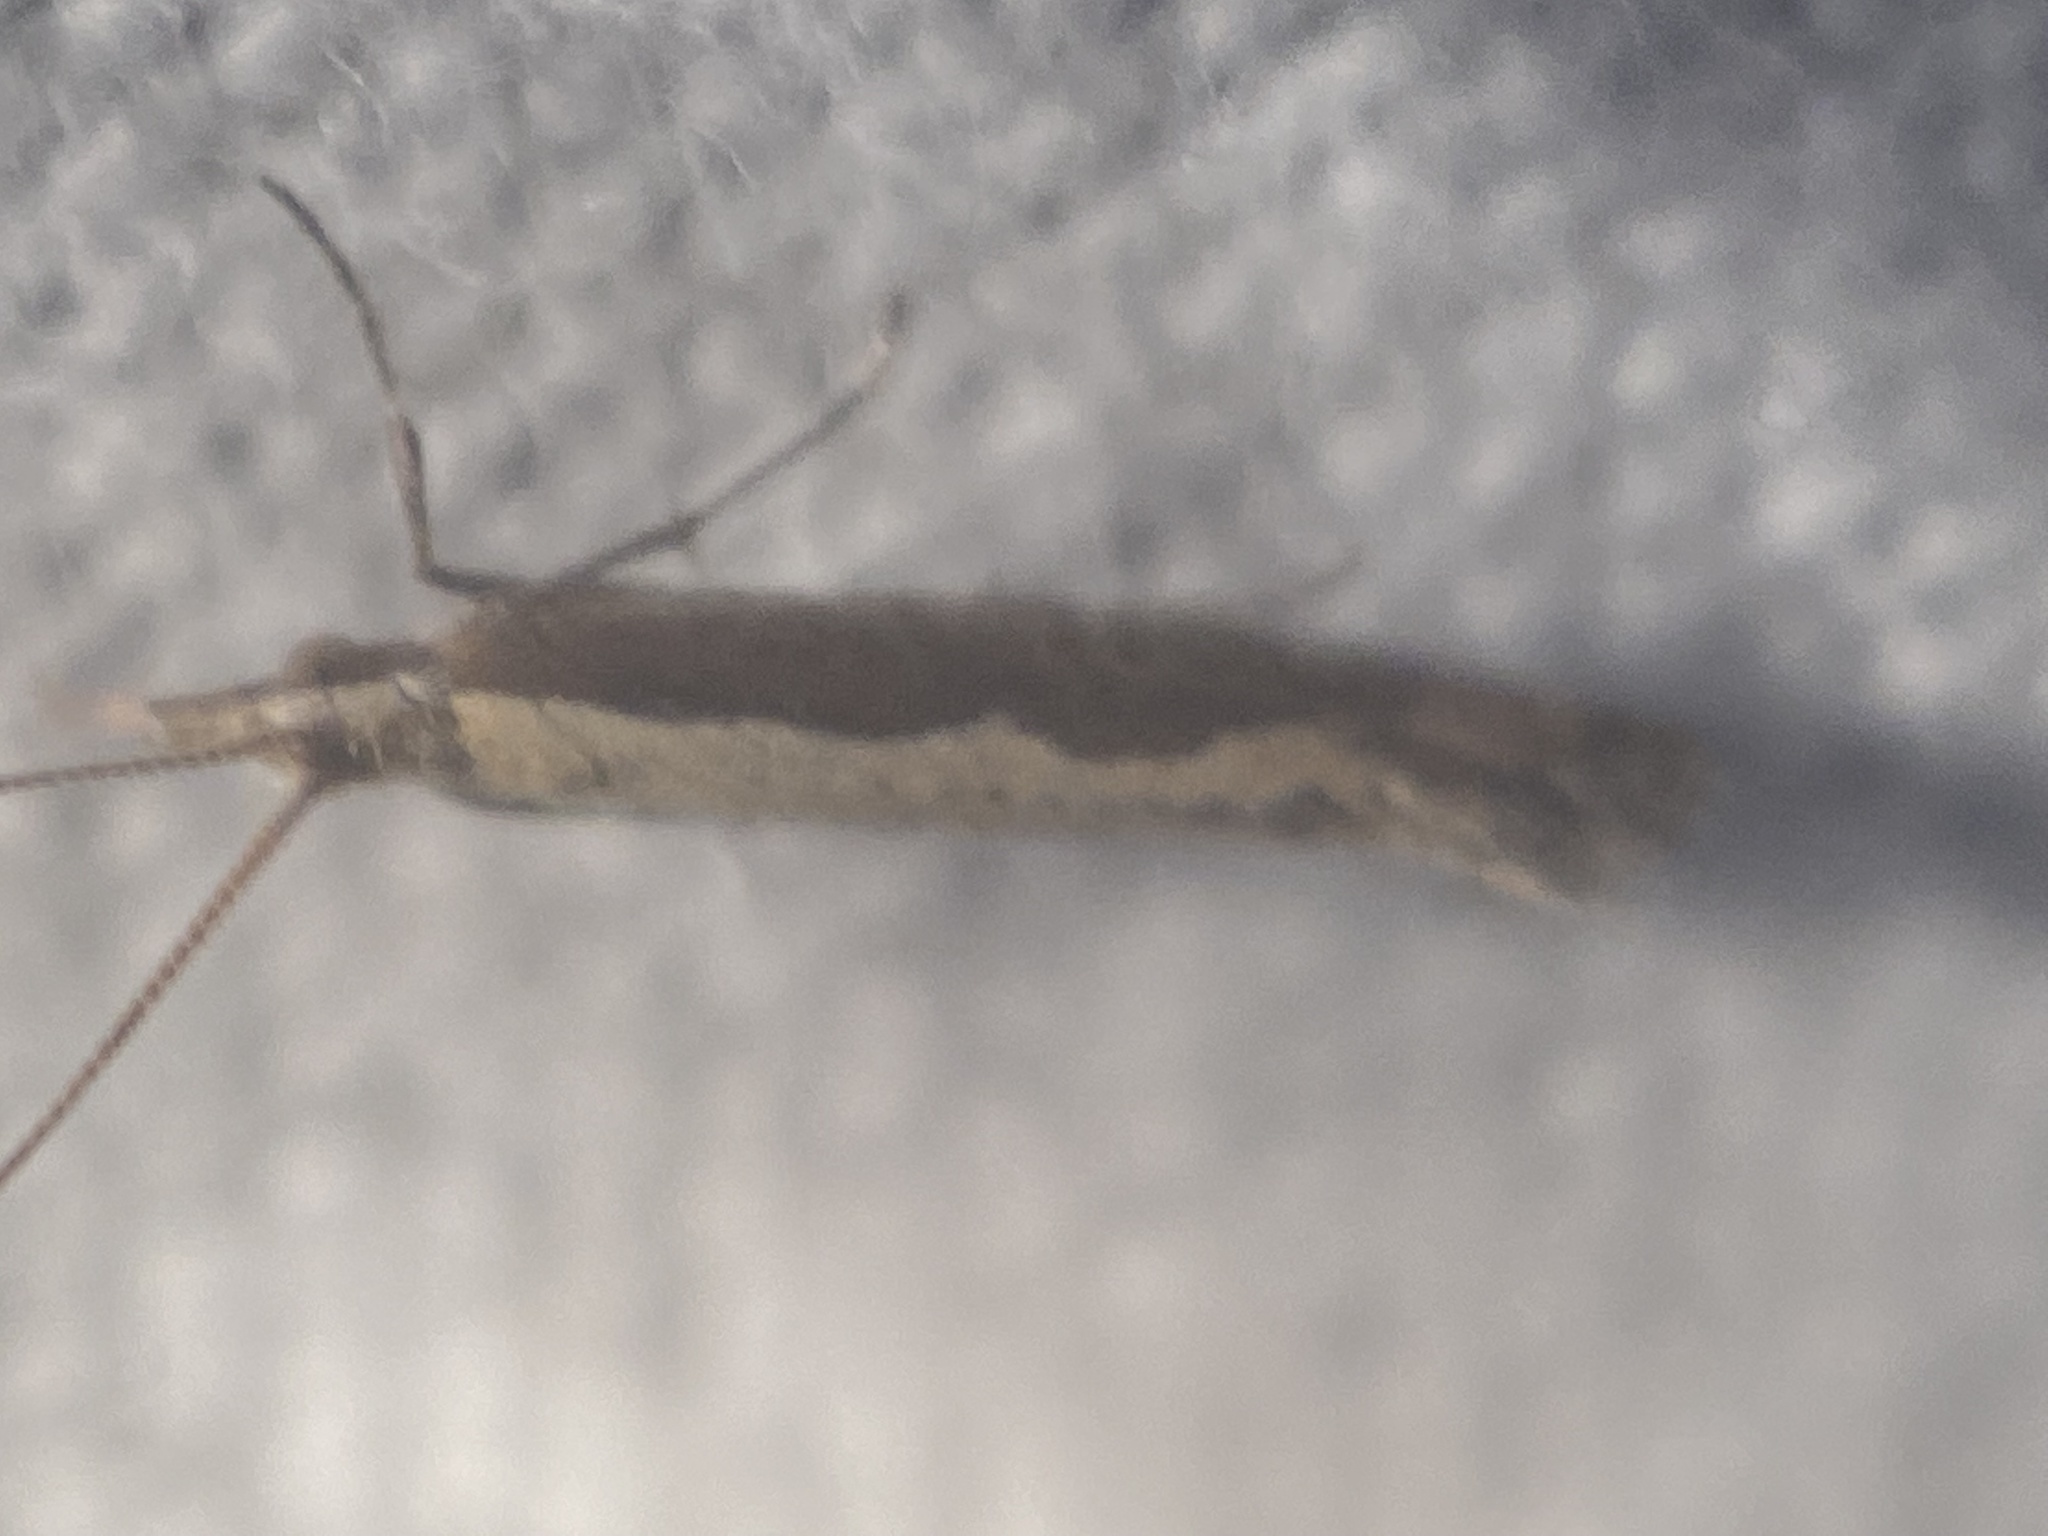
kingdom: Animalia
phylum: Arthropoda
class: Insecta
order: Lepidoptera
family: Plutellidae
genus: Plutella
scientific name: Plutella xylostella
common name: Diamond-back moth
